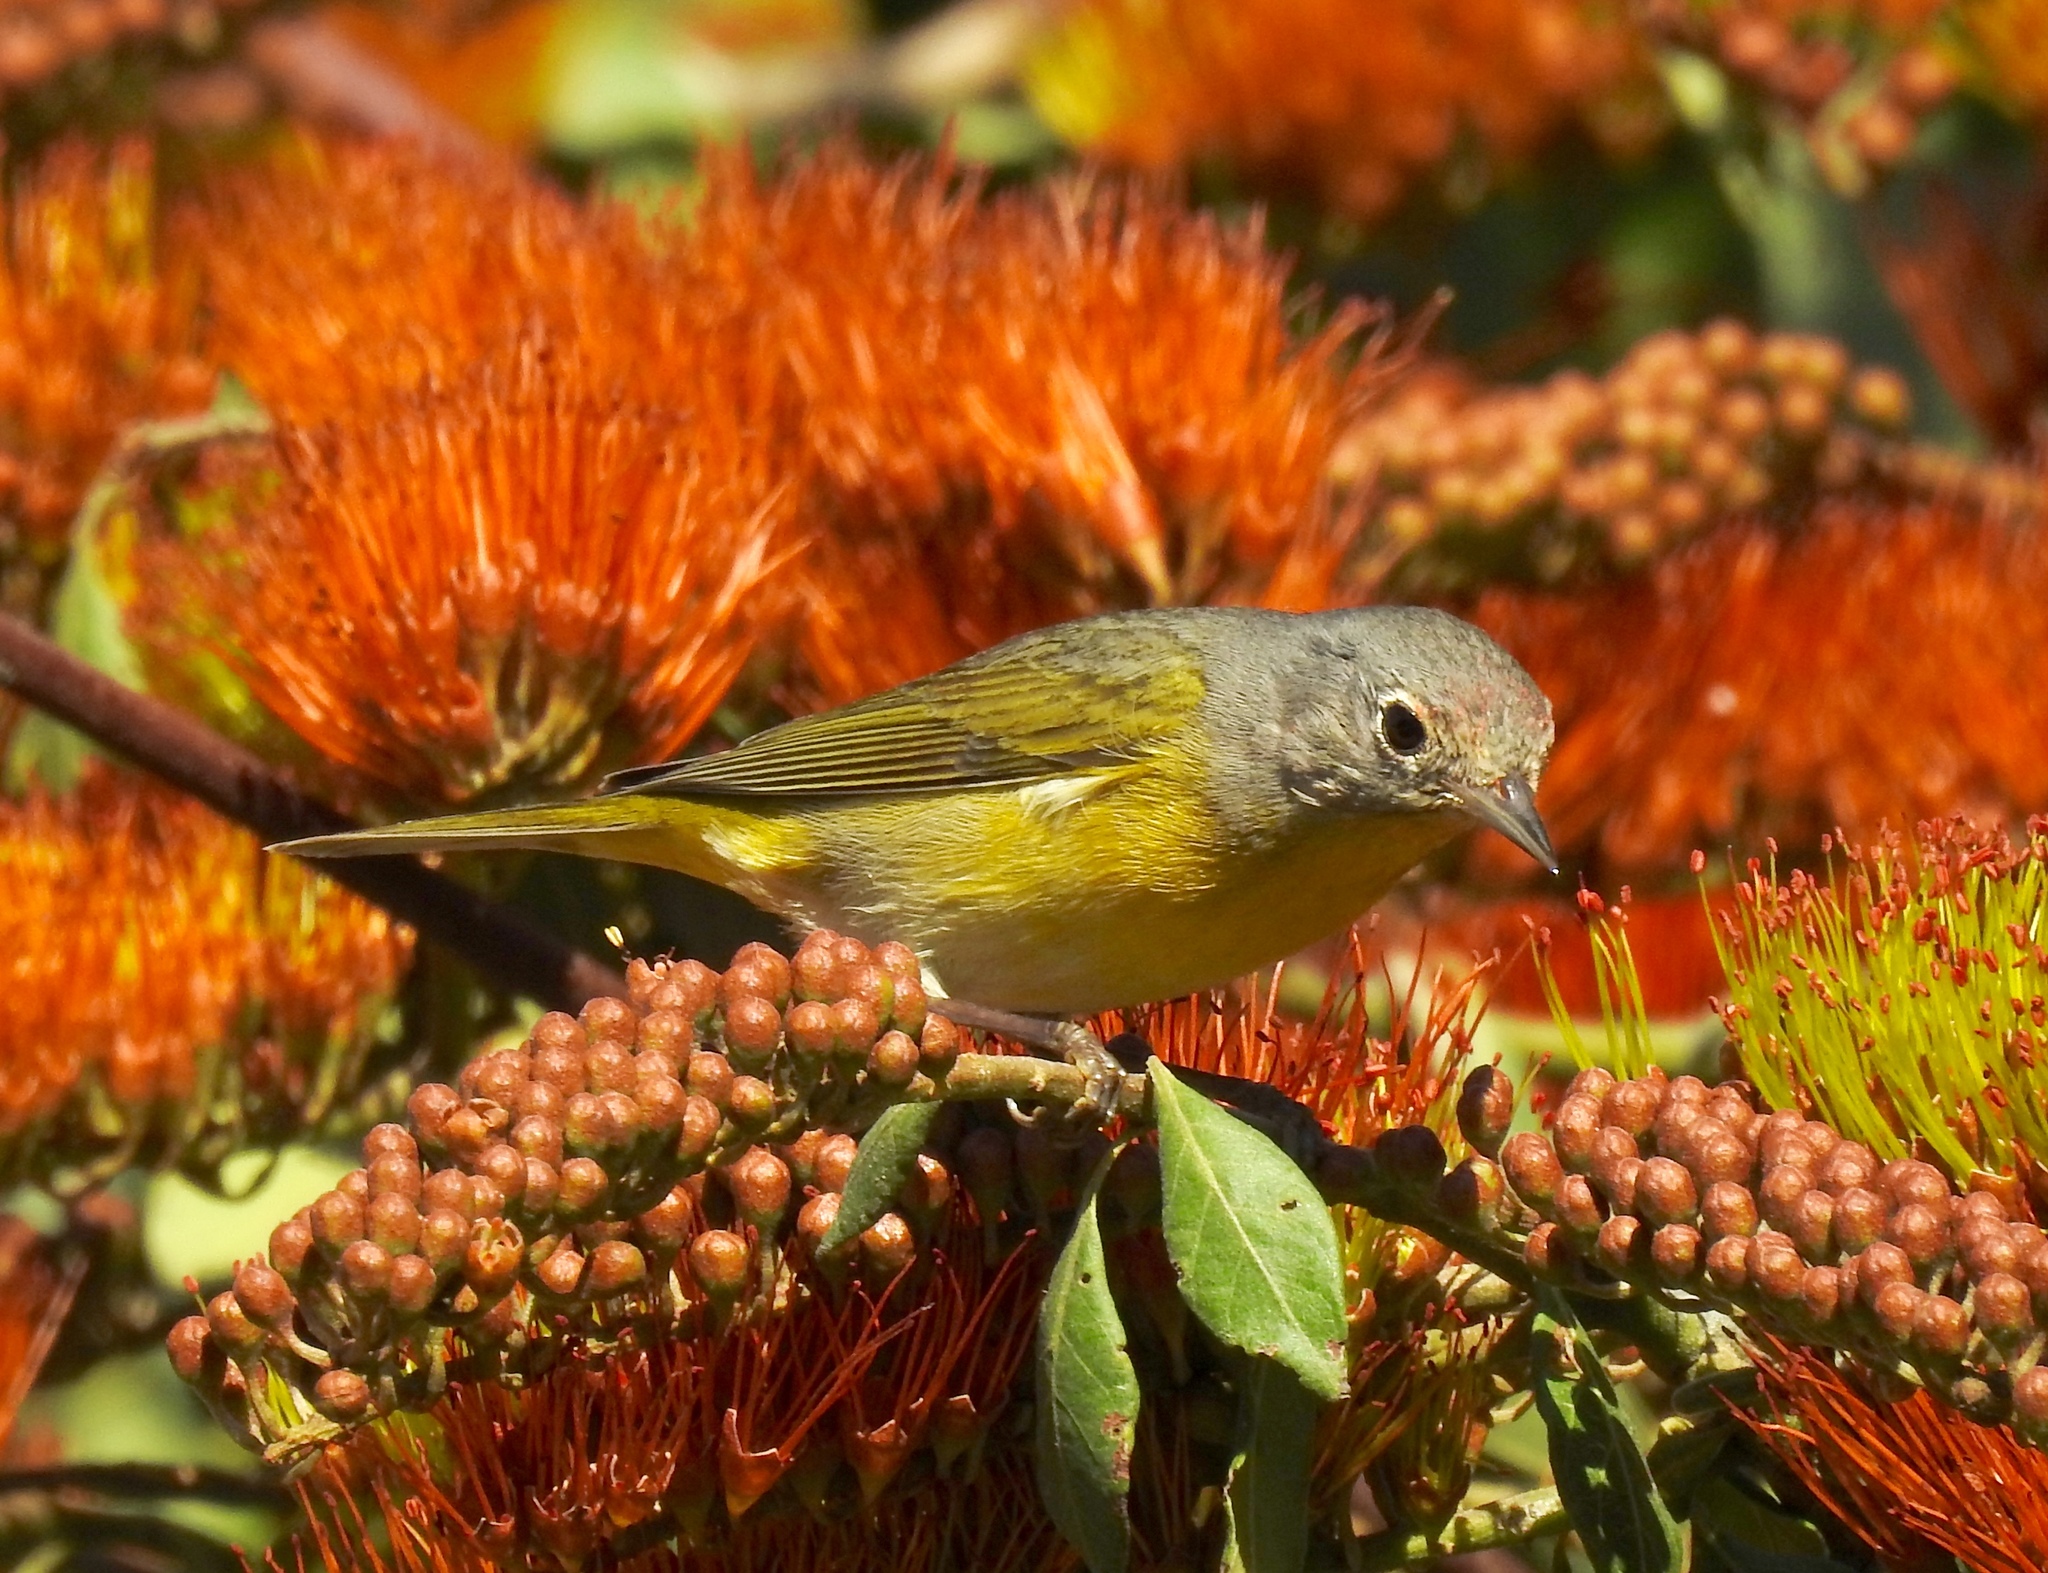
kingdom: Animalia
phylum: Chordata
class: Aves
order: Passeriformes
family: Parulidae
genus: Leiothlypis
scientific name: Leiothlypis ruficapilla
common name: Nashville warbler
